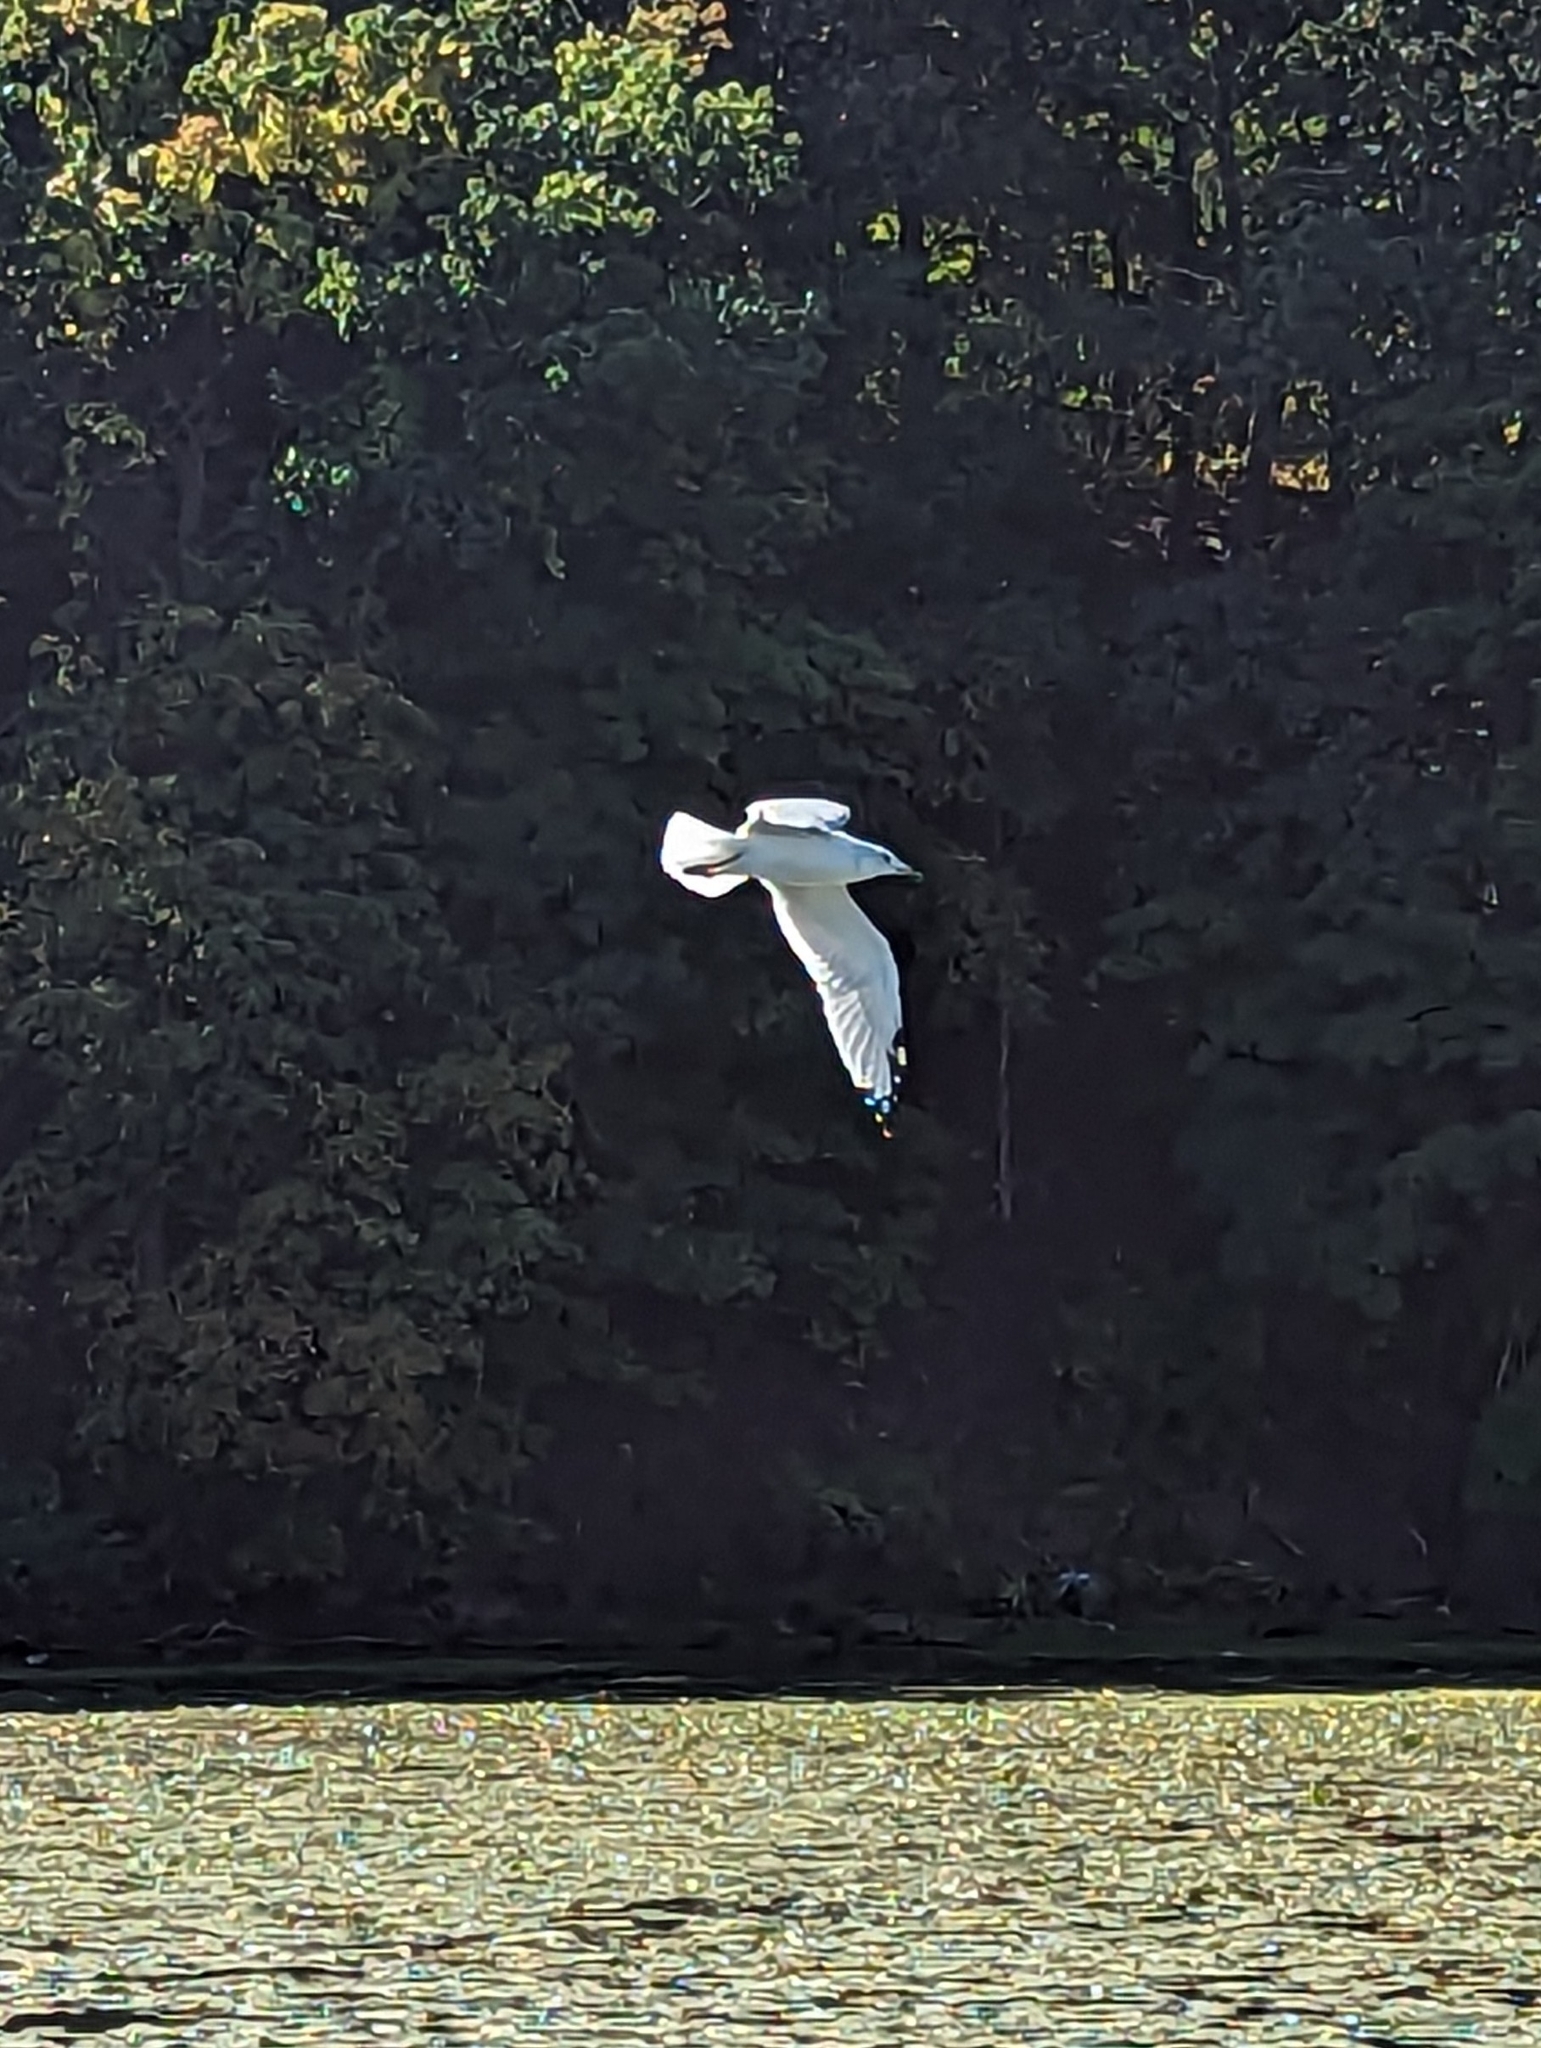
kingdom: Animalia
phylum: Chordata
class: Aves
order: Charadriiformes
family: Laridae
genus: Larus
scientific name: Larus delawarensis
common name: Ring-billed gull
